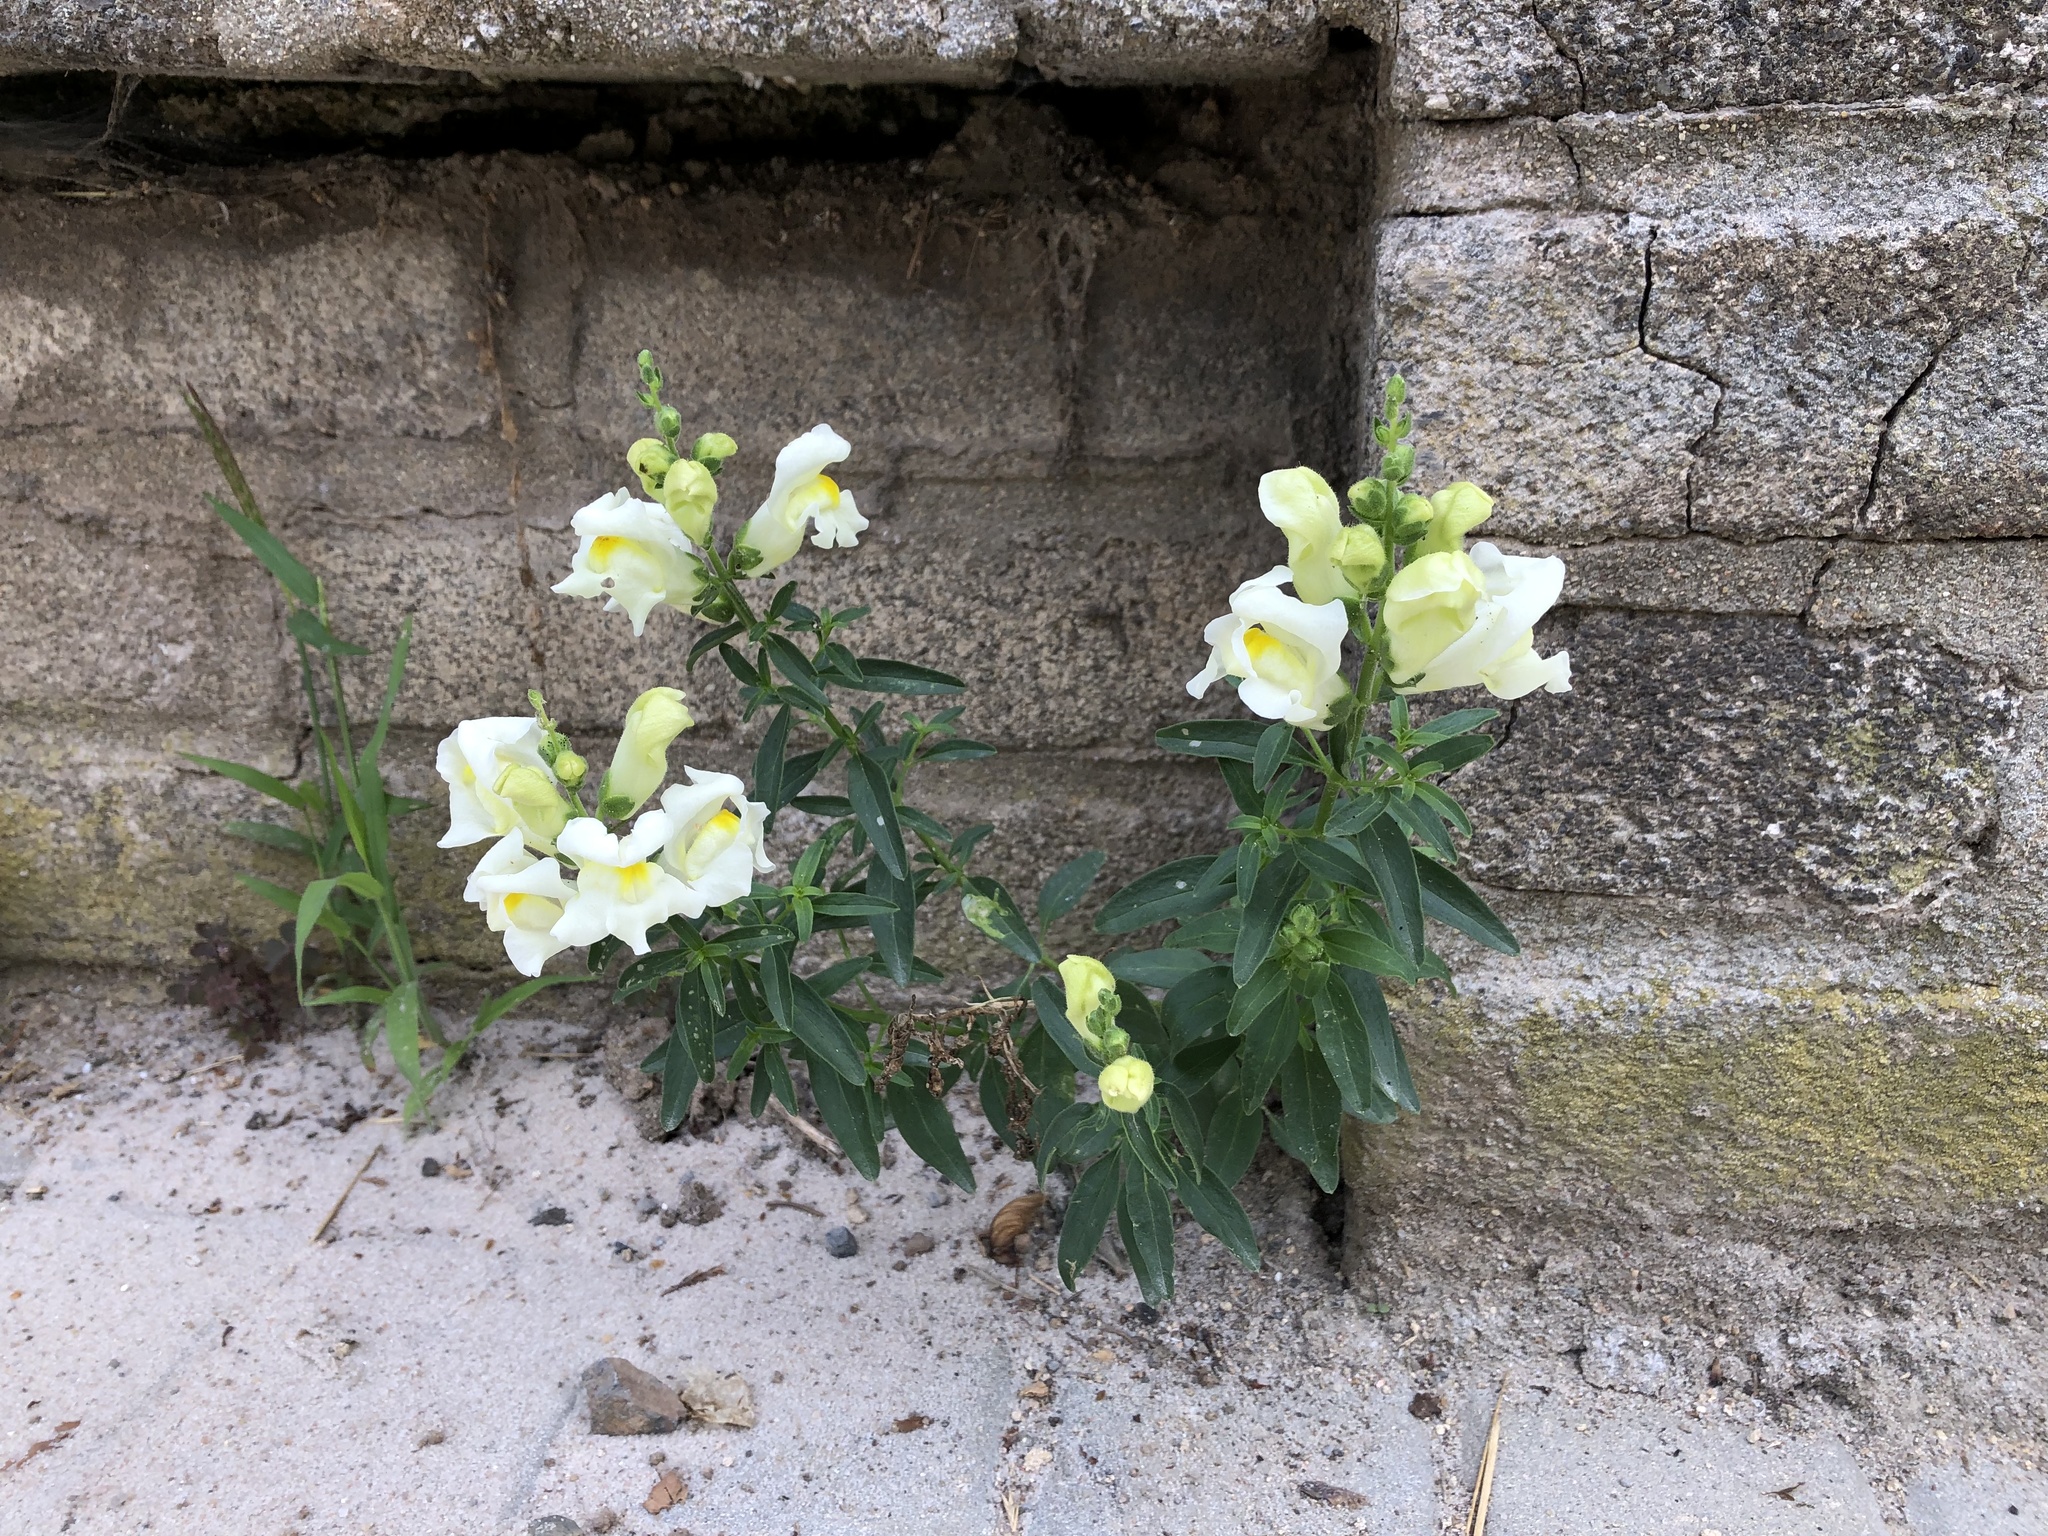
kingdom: Plantae
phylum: Tracheophyta
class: Magnoliopsida
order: Lamiales
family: Plantaginaceae
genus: Antirrhinum
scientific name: Antirrhinum majus
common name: Snapdragon
